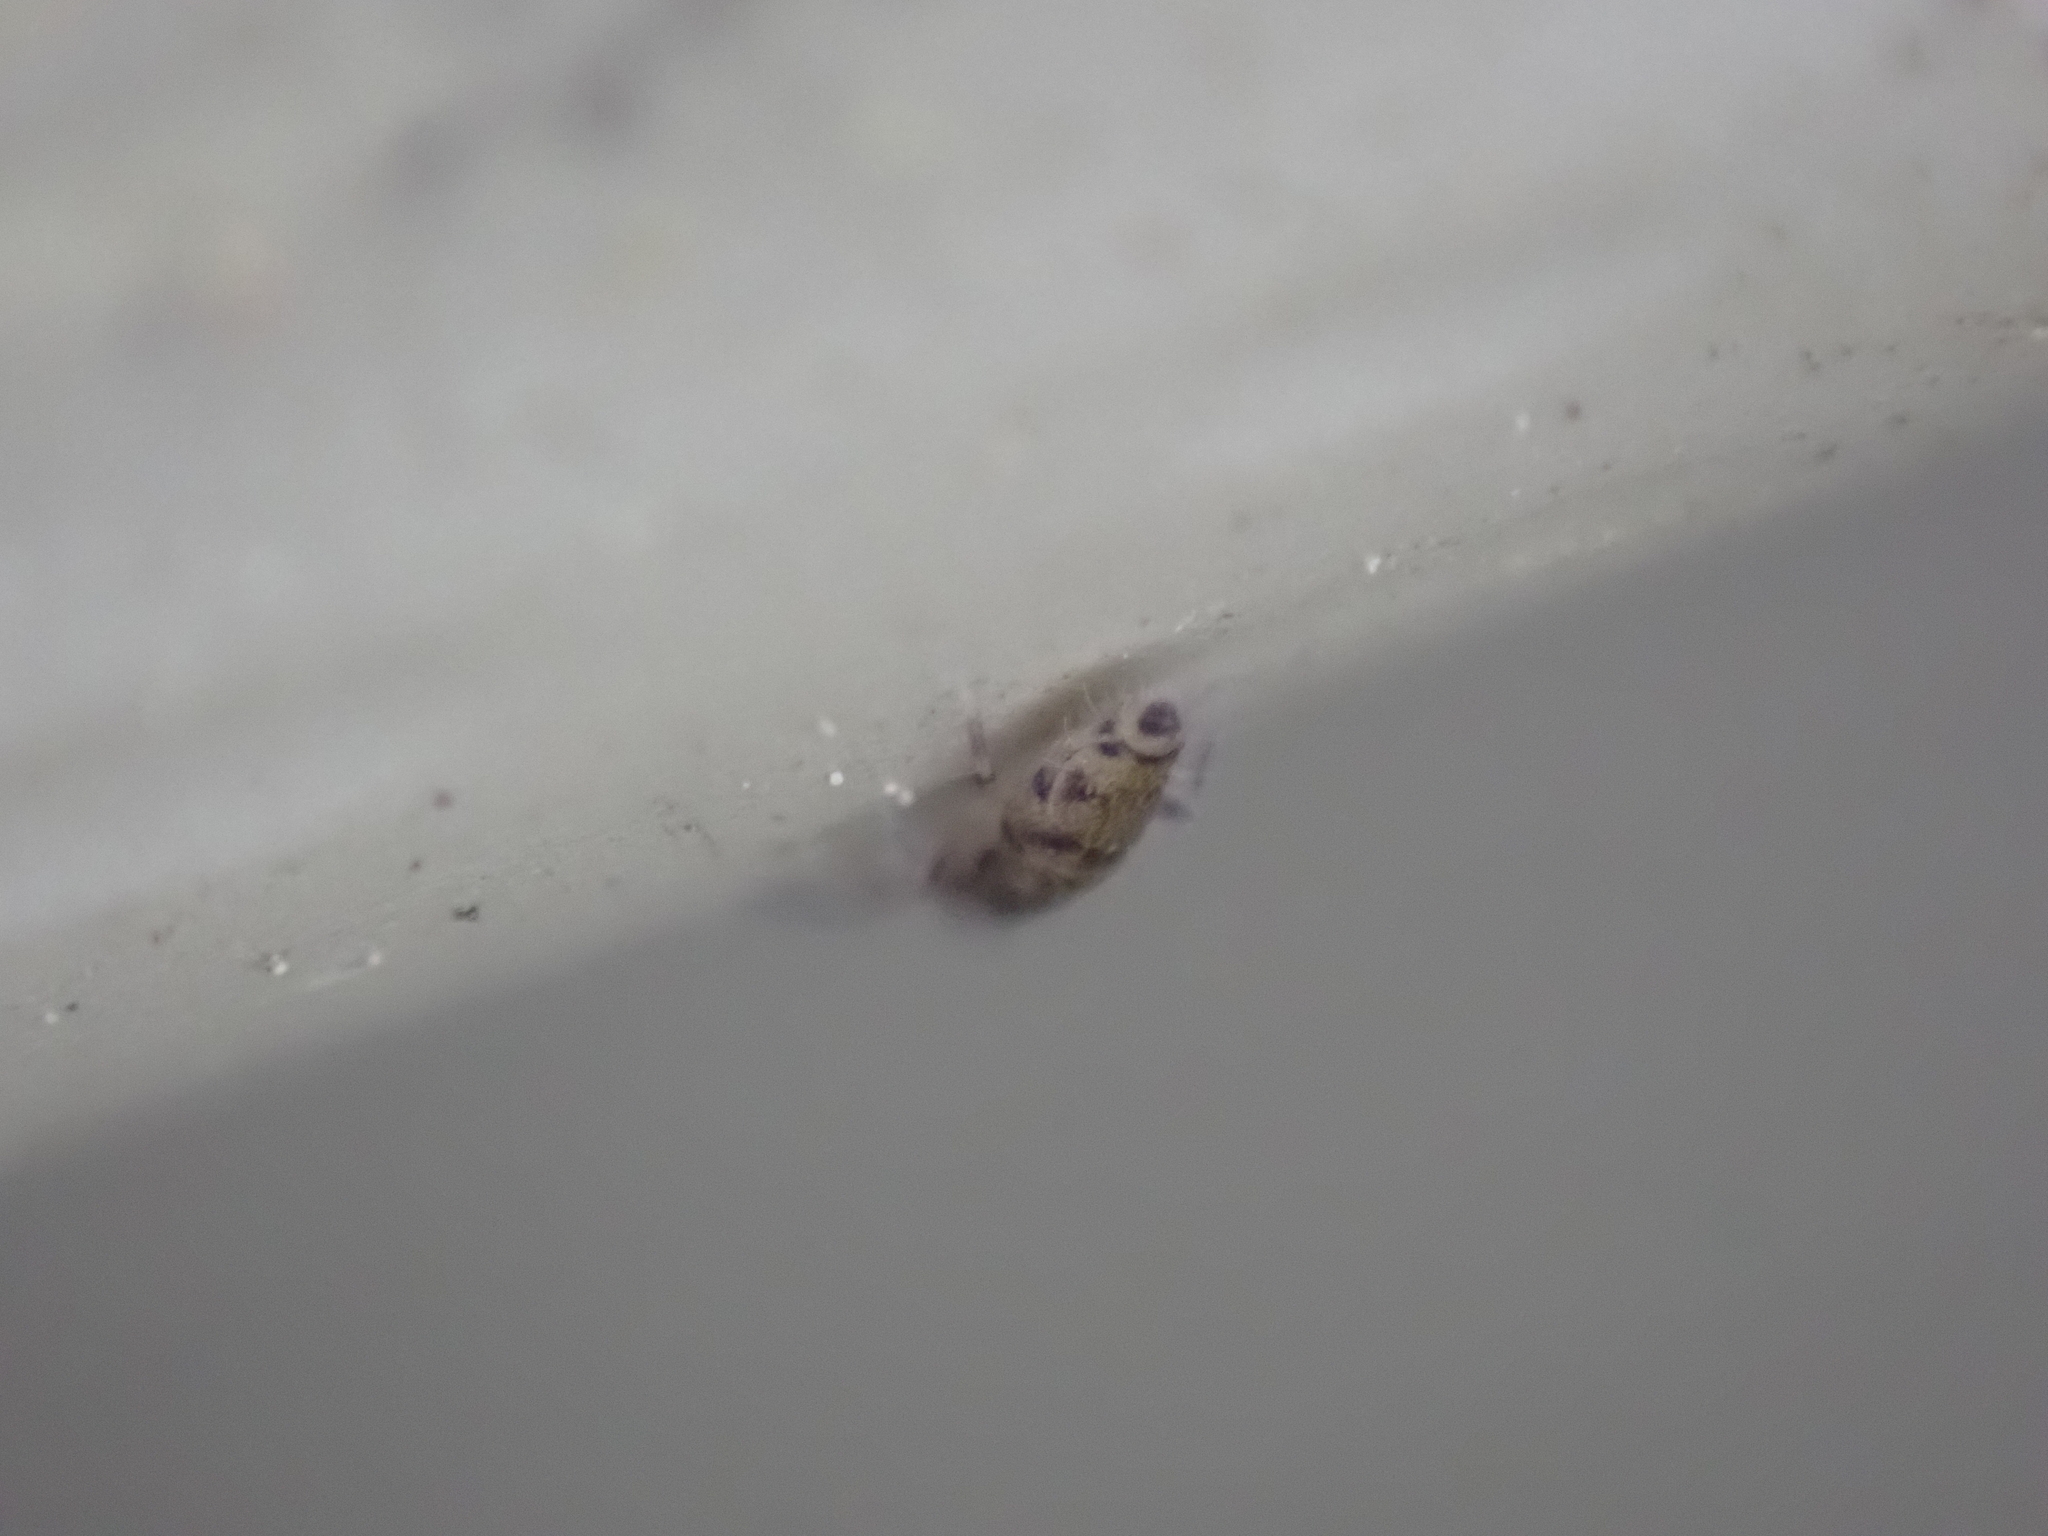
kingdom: Animalia
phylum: Arthropoda
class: Collembola
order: Entomobryomorpha
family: Entomobryidae
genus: Willowsia
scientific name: Willowsia nigromaculata
